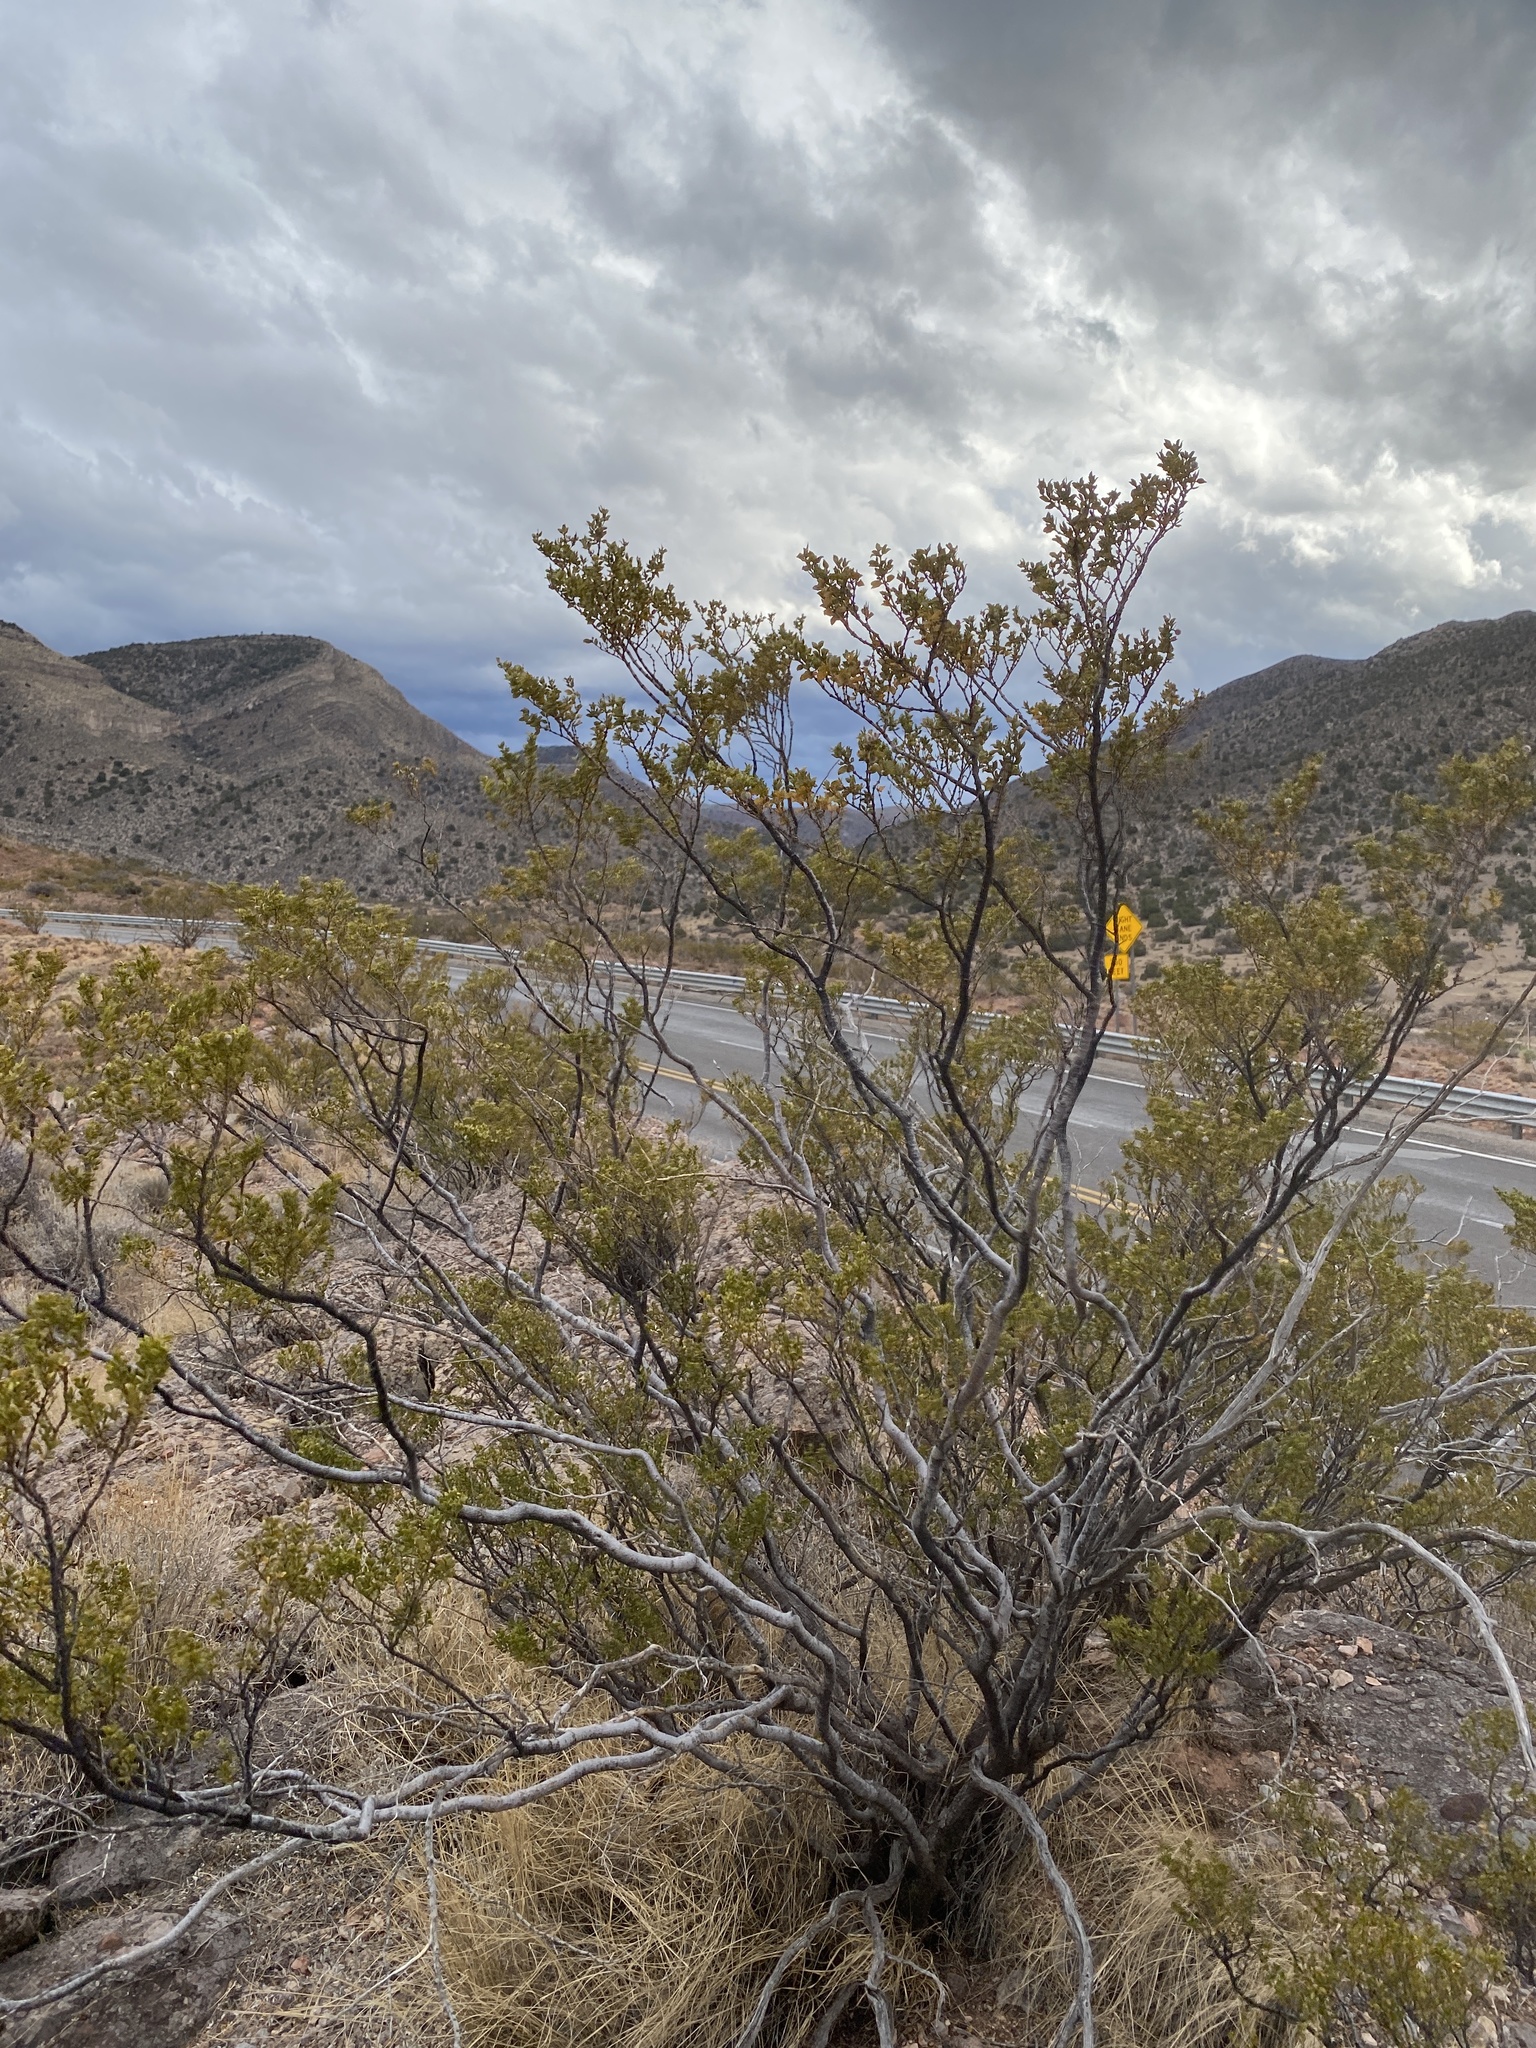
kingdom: Plantae
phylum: Tracheophyta
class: Magnoliopsida
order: Zygophyllales
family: Zygophyllaceae
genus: Larrea
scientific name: Larrea tridentata
